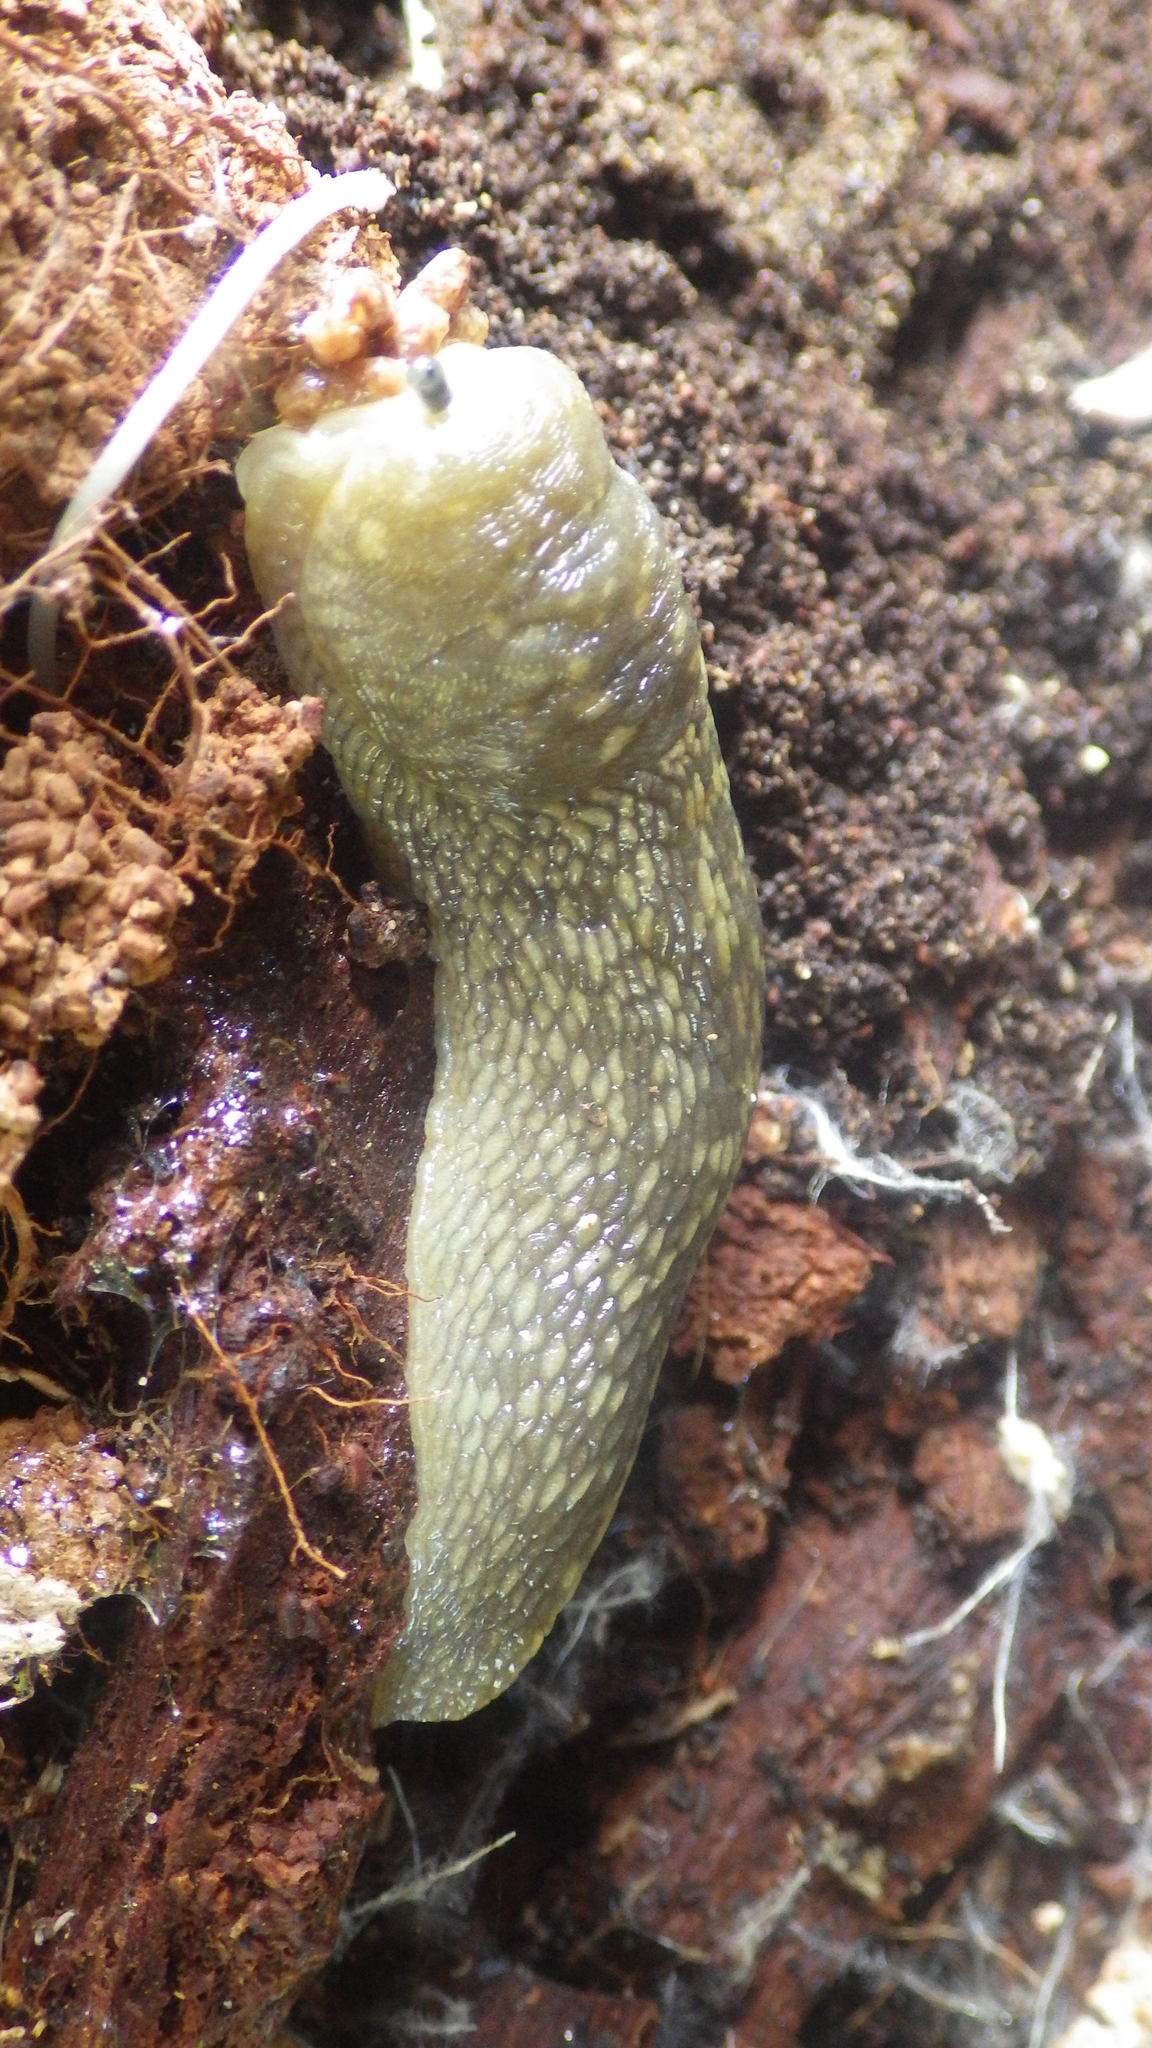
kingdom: Animalia
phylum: Mollusca
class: Gastropoda
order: Stylommatophora
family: Limacidae
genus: Limacus
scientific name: Limacus flavus
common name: Yellow gardenslug
